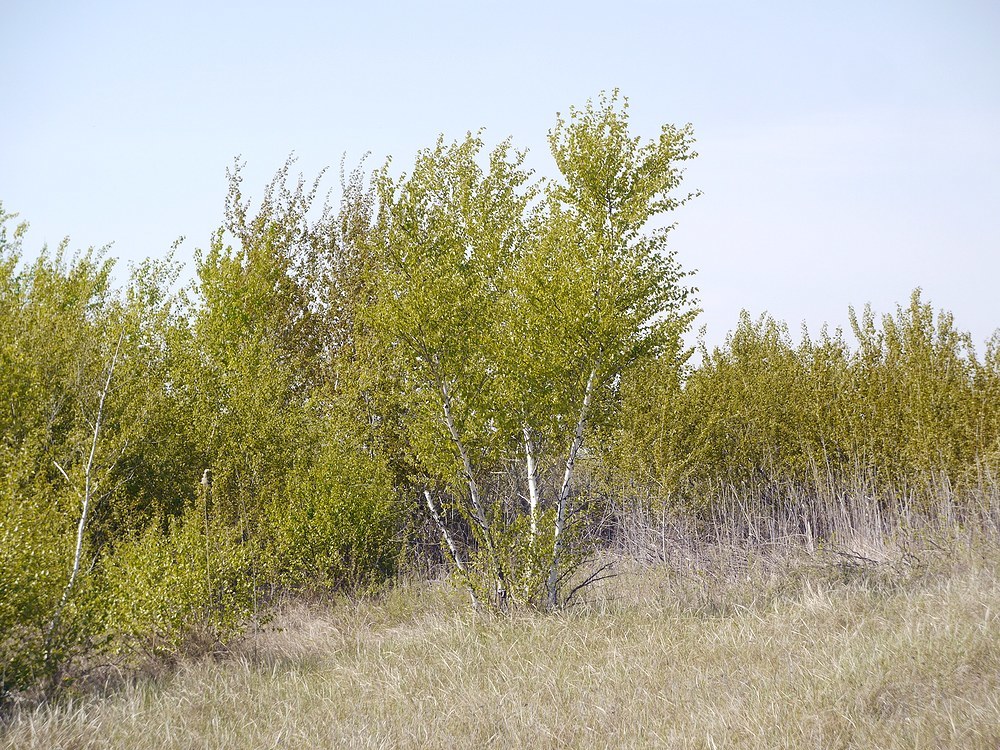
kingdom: Plantae
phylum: Tracheophyta
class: Magnoliopsida
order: Fagales
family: Betulaceae
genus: Betula
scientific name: Betula pubescens
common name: Downy birch
